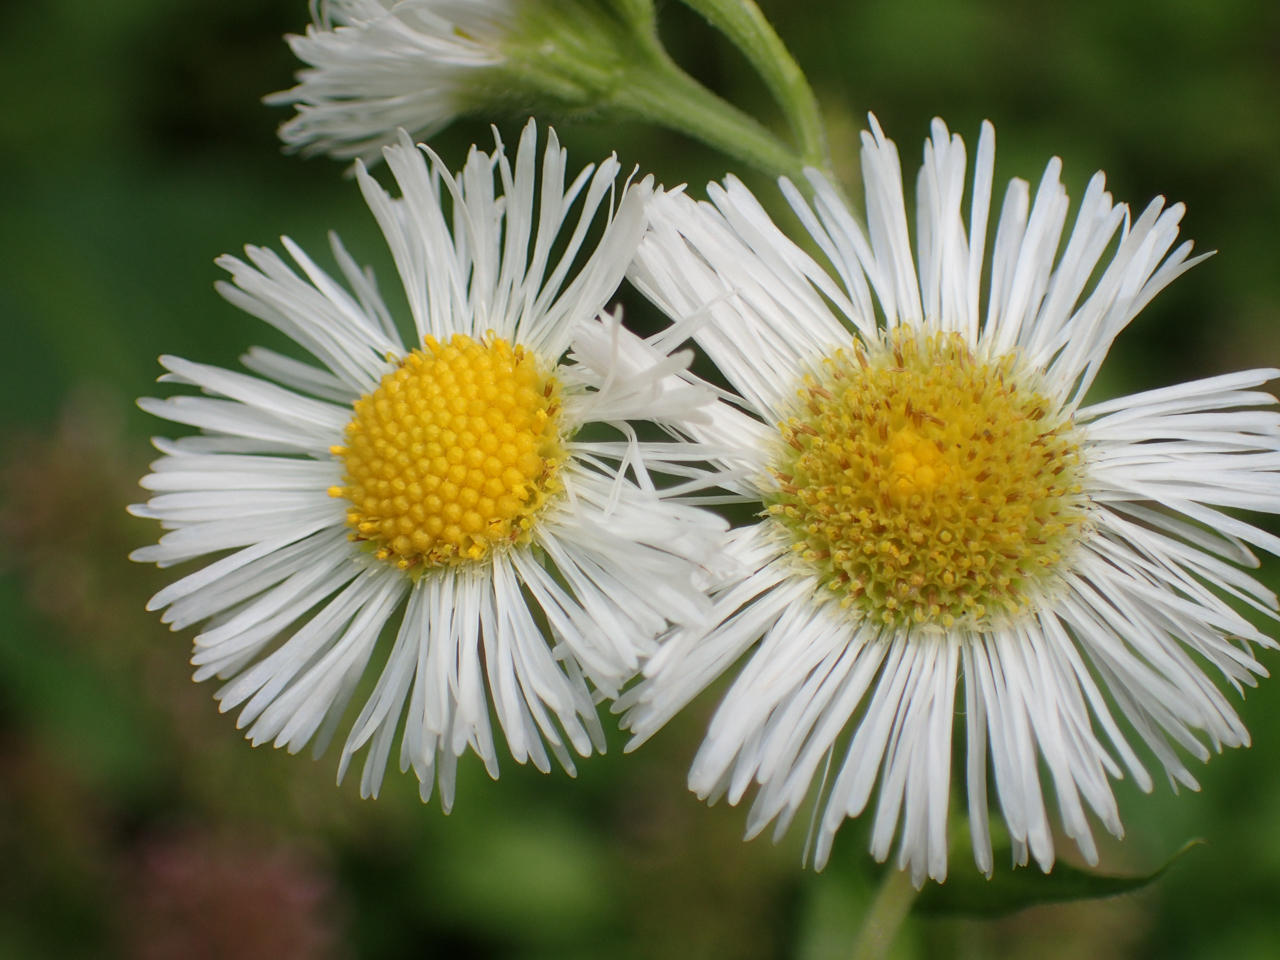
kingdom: Plantae
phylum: Tracheophyta
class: Magnoliopsida
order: Asterales
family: Asteraceae
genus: Erigeron
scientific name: Erigeron philadelphicus
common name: Robin's-plantain
